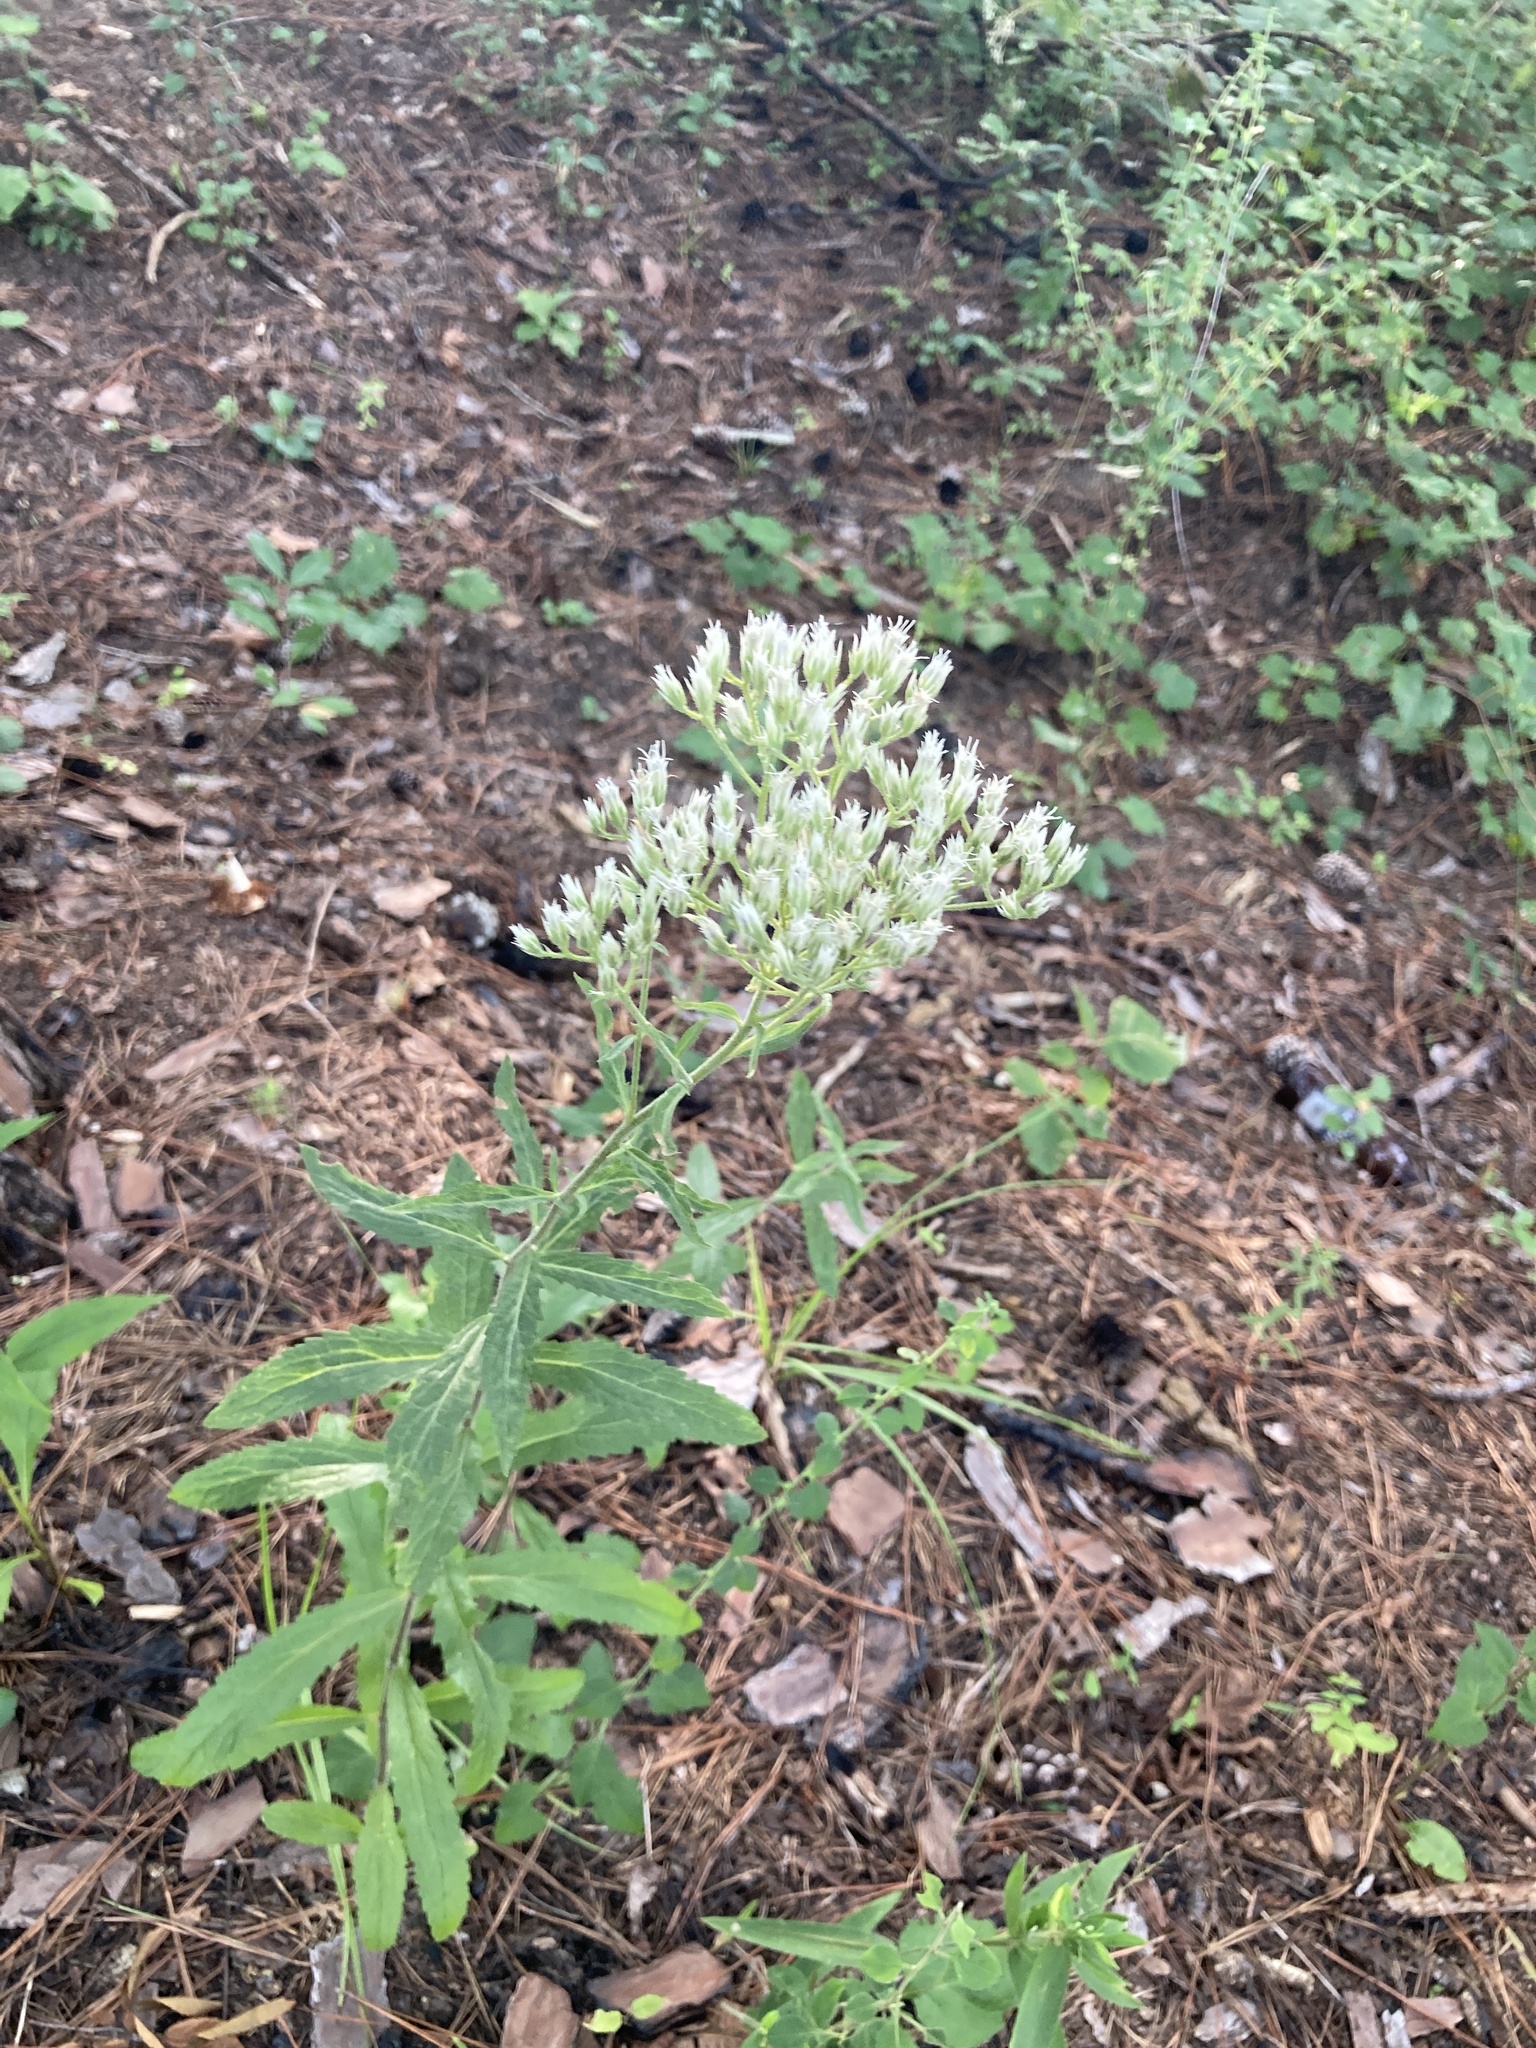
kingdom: Plantae
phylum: Tracheophyta
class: Magnoliopsida
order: Asterales
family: Asteraceae
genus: Eupatorium
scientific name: Eupatorium album
